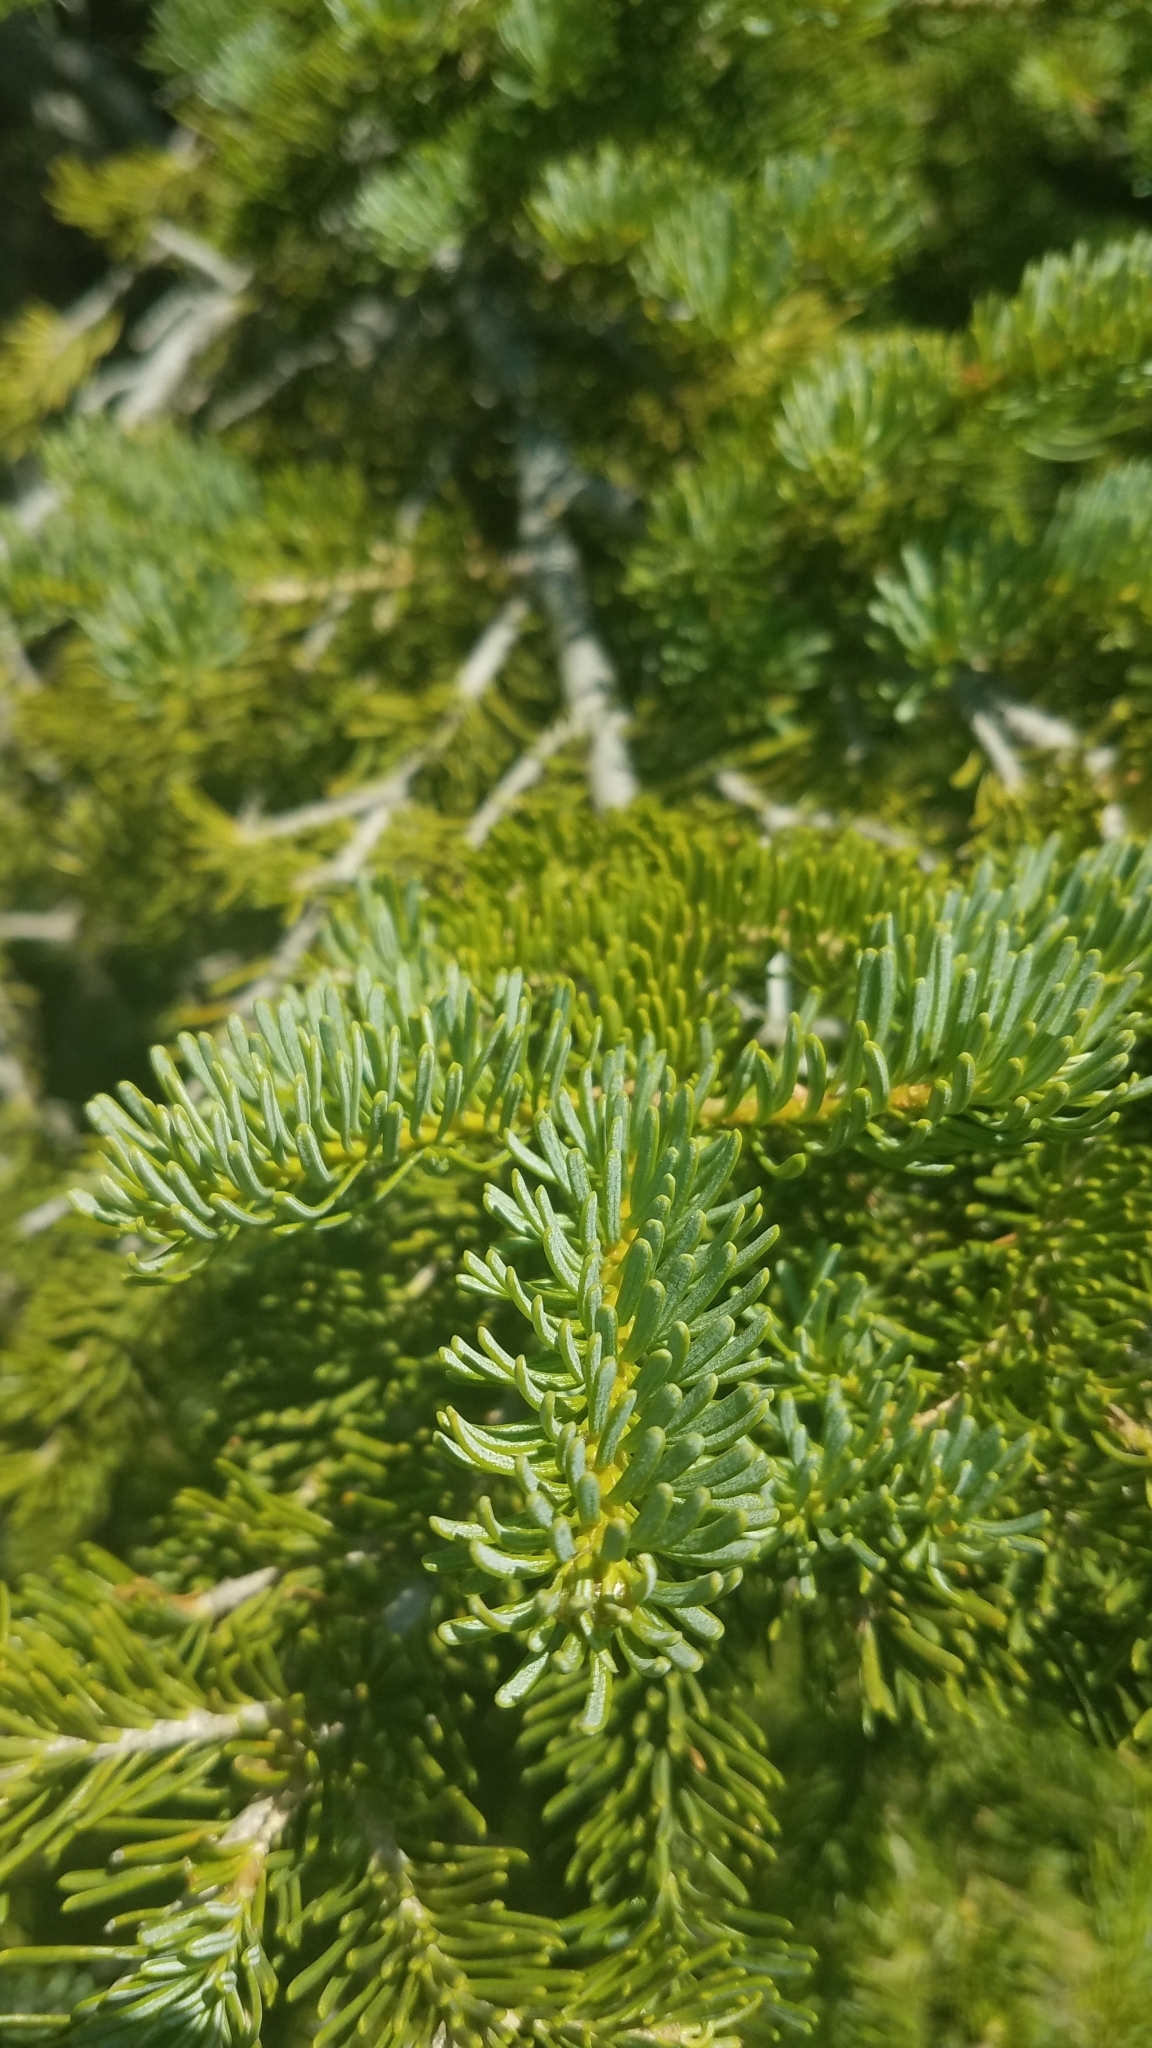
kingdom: Plantae
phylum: Tracheophyta
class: Pinopsida
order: Pinales
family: Pinaceae
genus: Abies
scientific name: Abies lasiocarpa
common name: Subalpine fir
